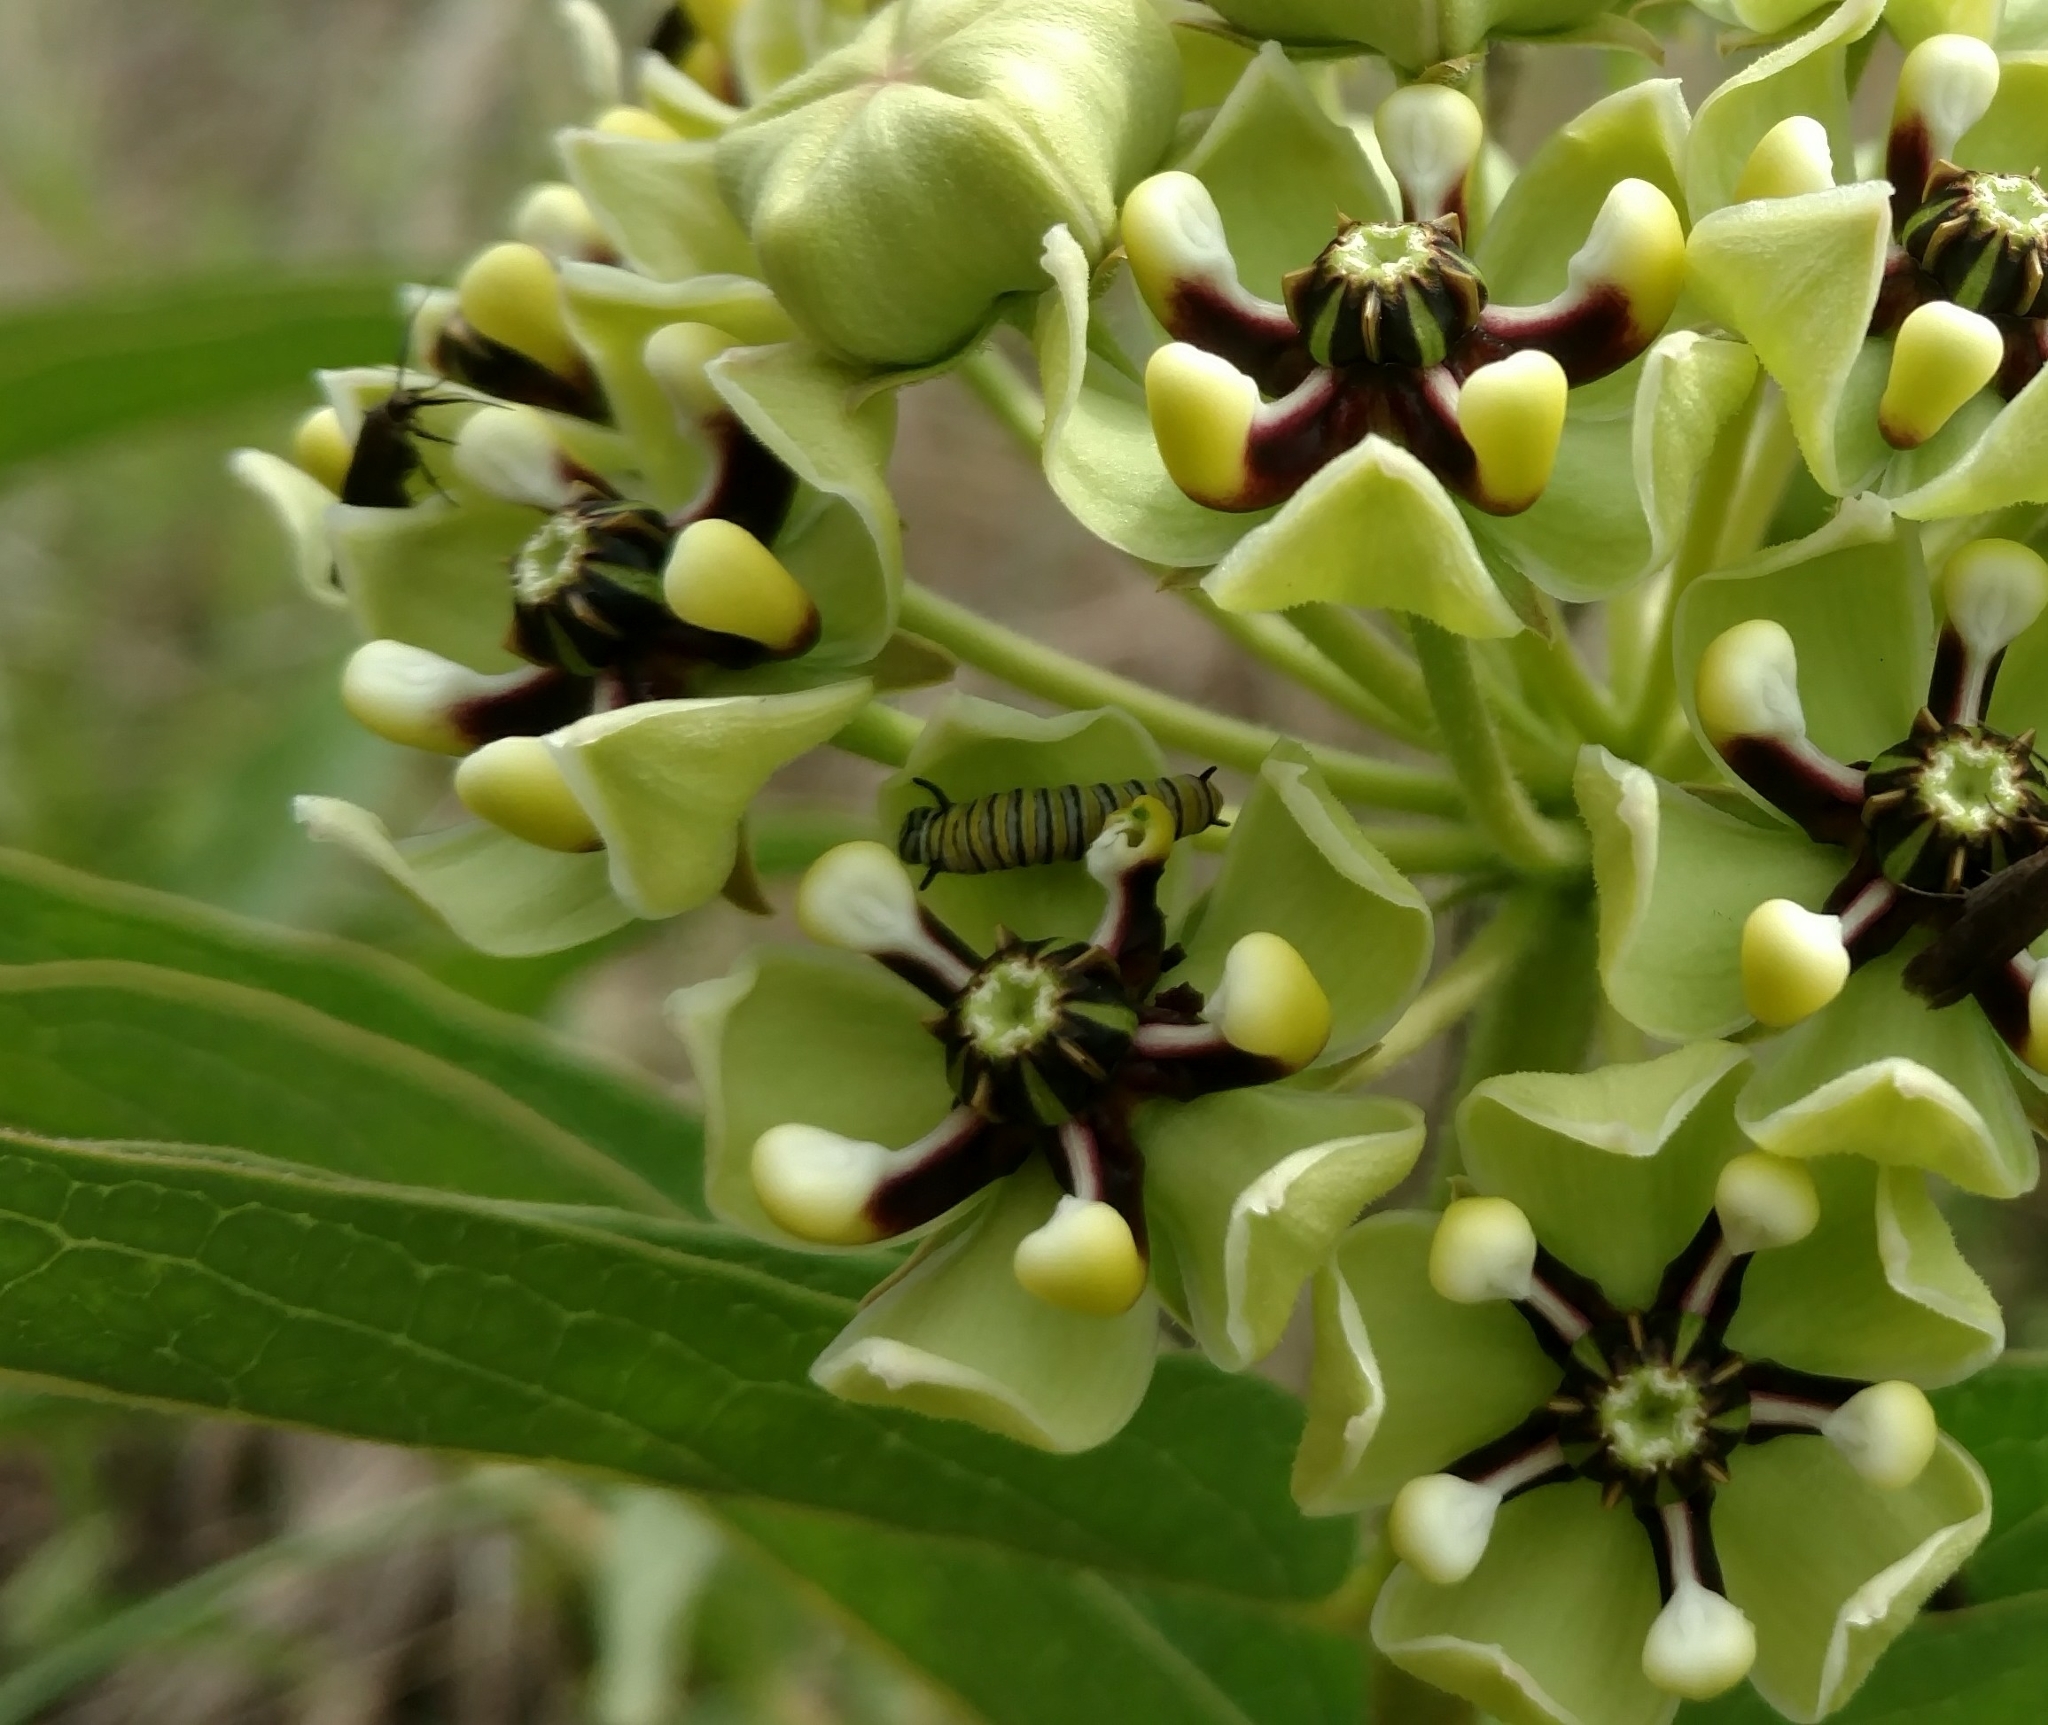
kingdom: Animalia
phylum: Arthropoda
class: Insecta
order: Lepidoptera
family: Nymphalidae
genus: Danaus
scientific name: Danaus plexippus
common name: Monarch
